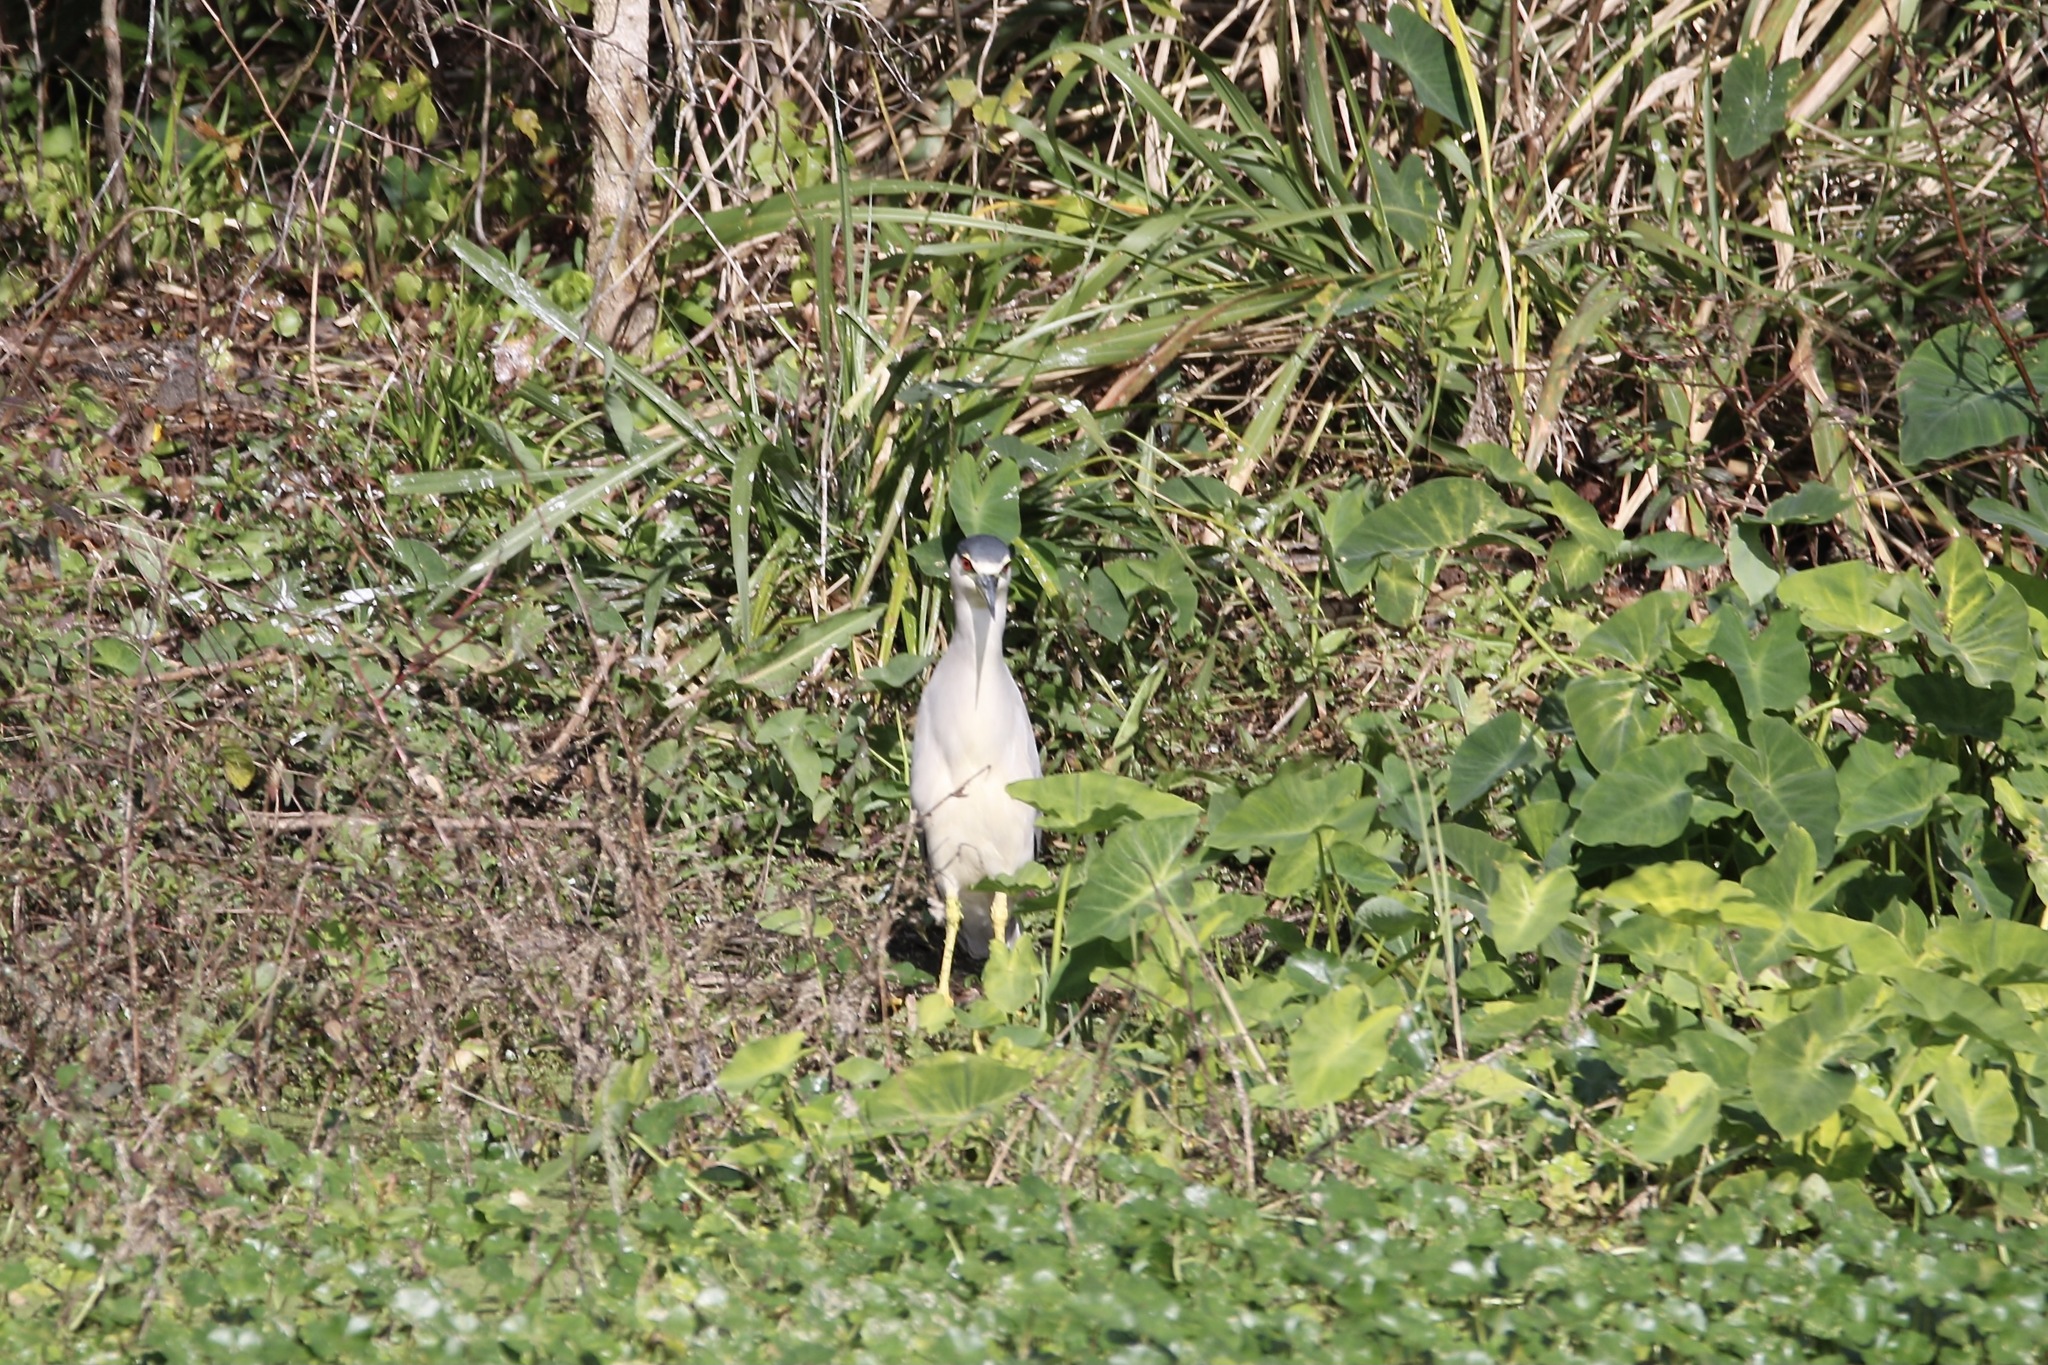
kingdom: Animalia
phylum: Chordata
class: Aves
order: Pelecaniformes
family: Ardeidae
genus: Nycticorax
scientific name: Nycticorax nycticorax
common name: Black-crowned night heron
